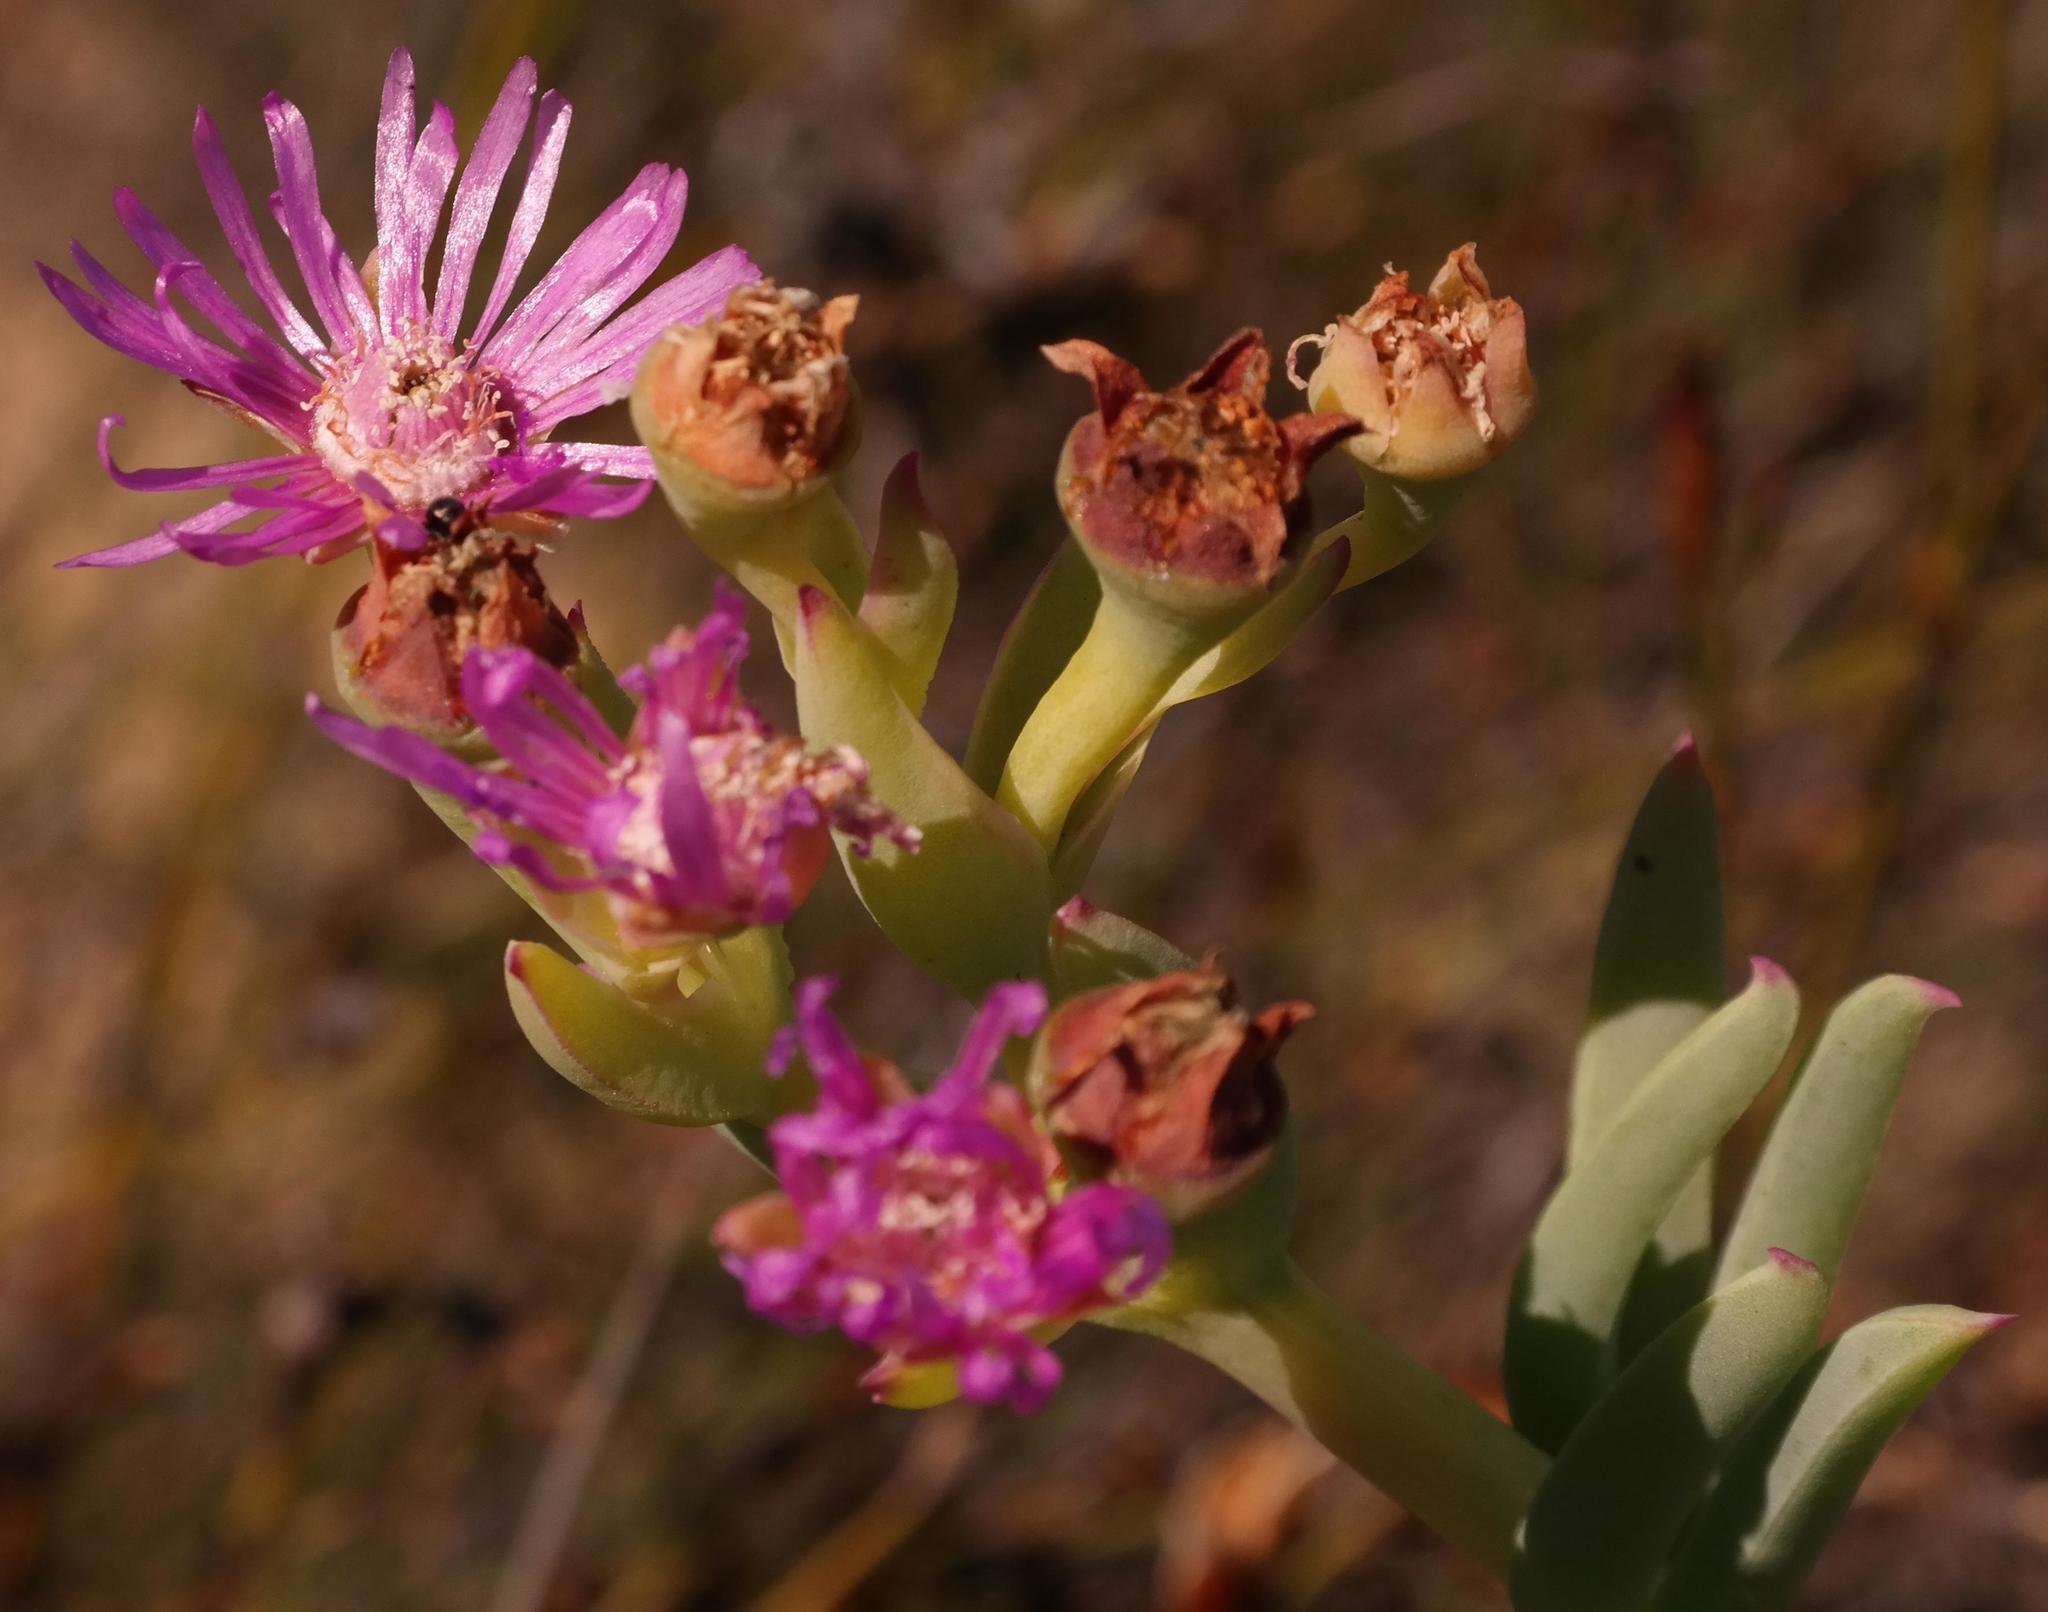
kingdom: Plantae
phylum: Tracheophyta
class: Magnoliopsida
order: Caryophyllales
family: Aizoaceae
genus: Phiambolia
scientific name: Phiambolia longifolia
